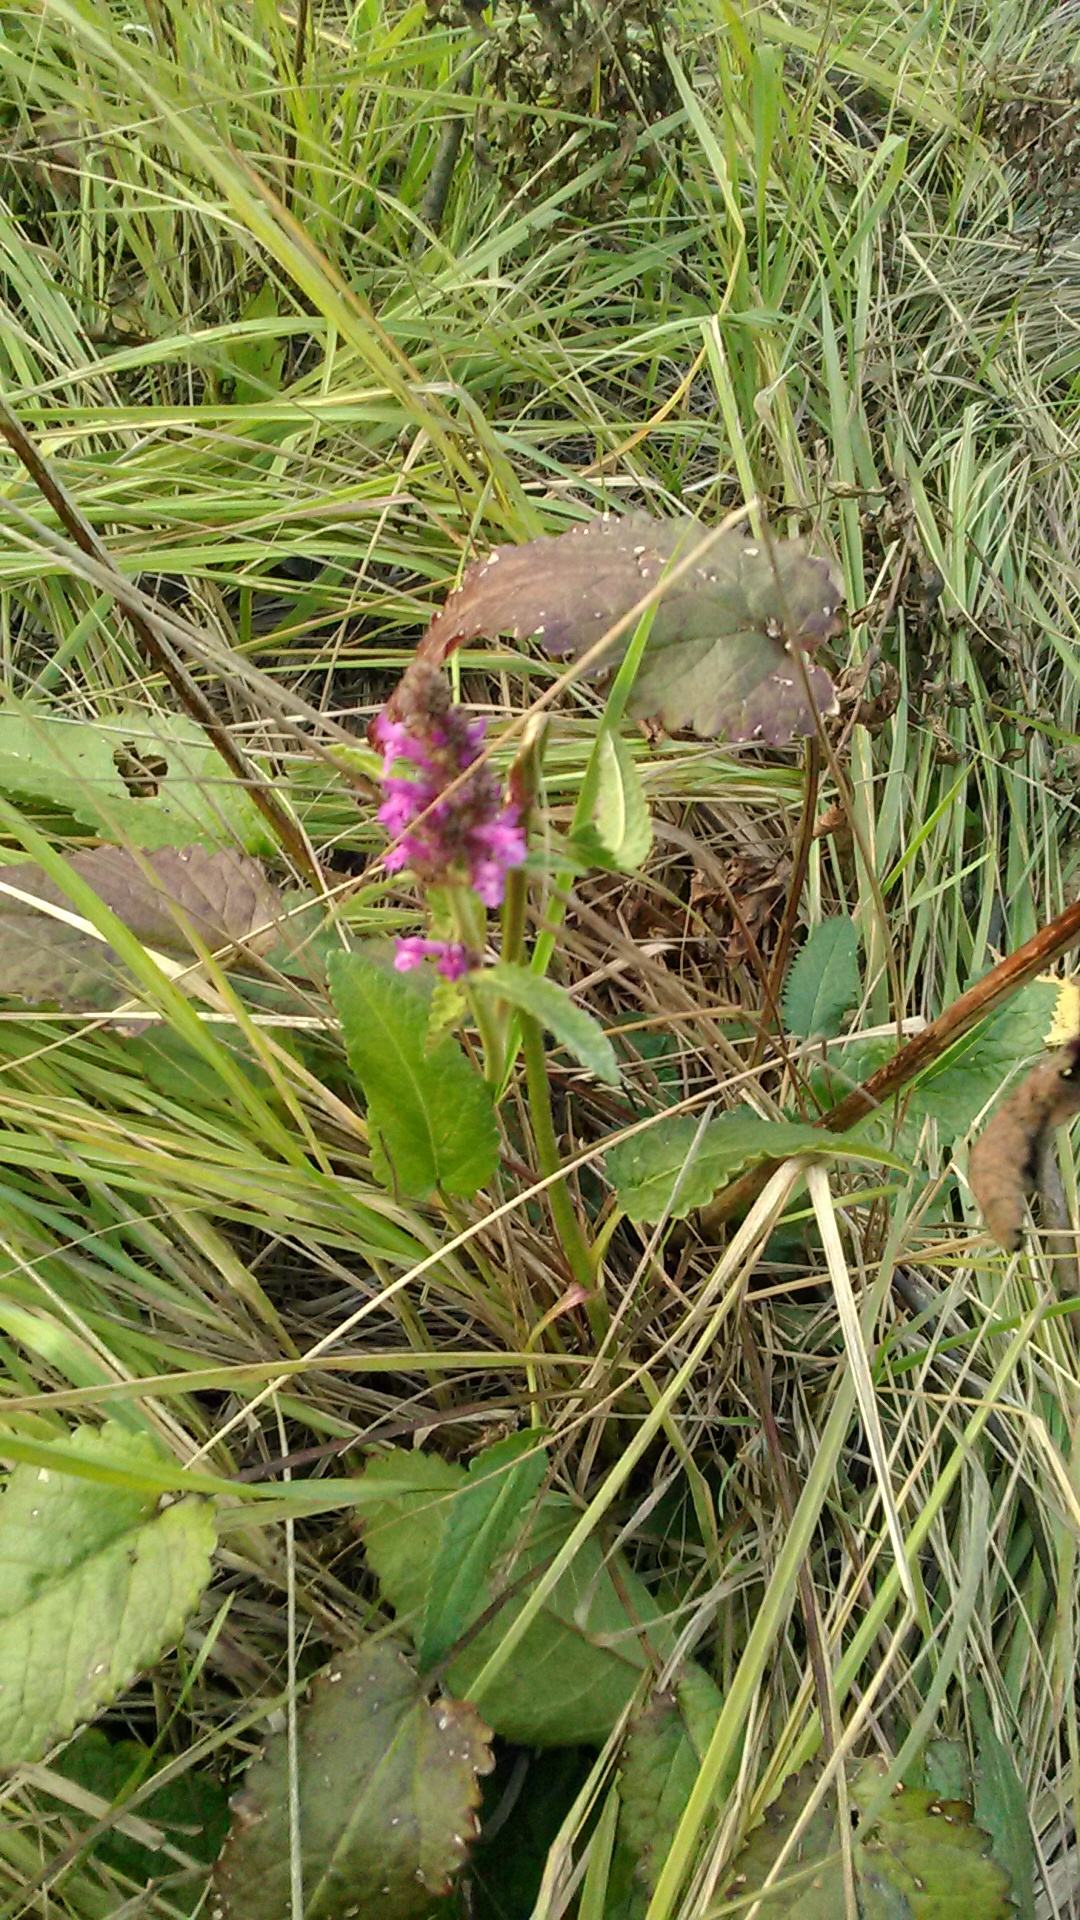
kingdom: Plantae
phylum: Tracheophyta
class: Magnoliopsida
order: Lamiales
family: Lamiaceae
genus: Betonica
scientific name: Betonica officinalis
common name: Bishop's-wort
